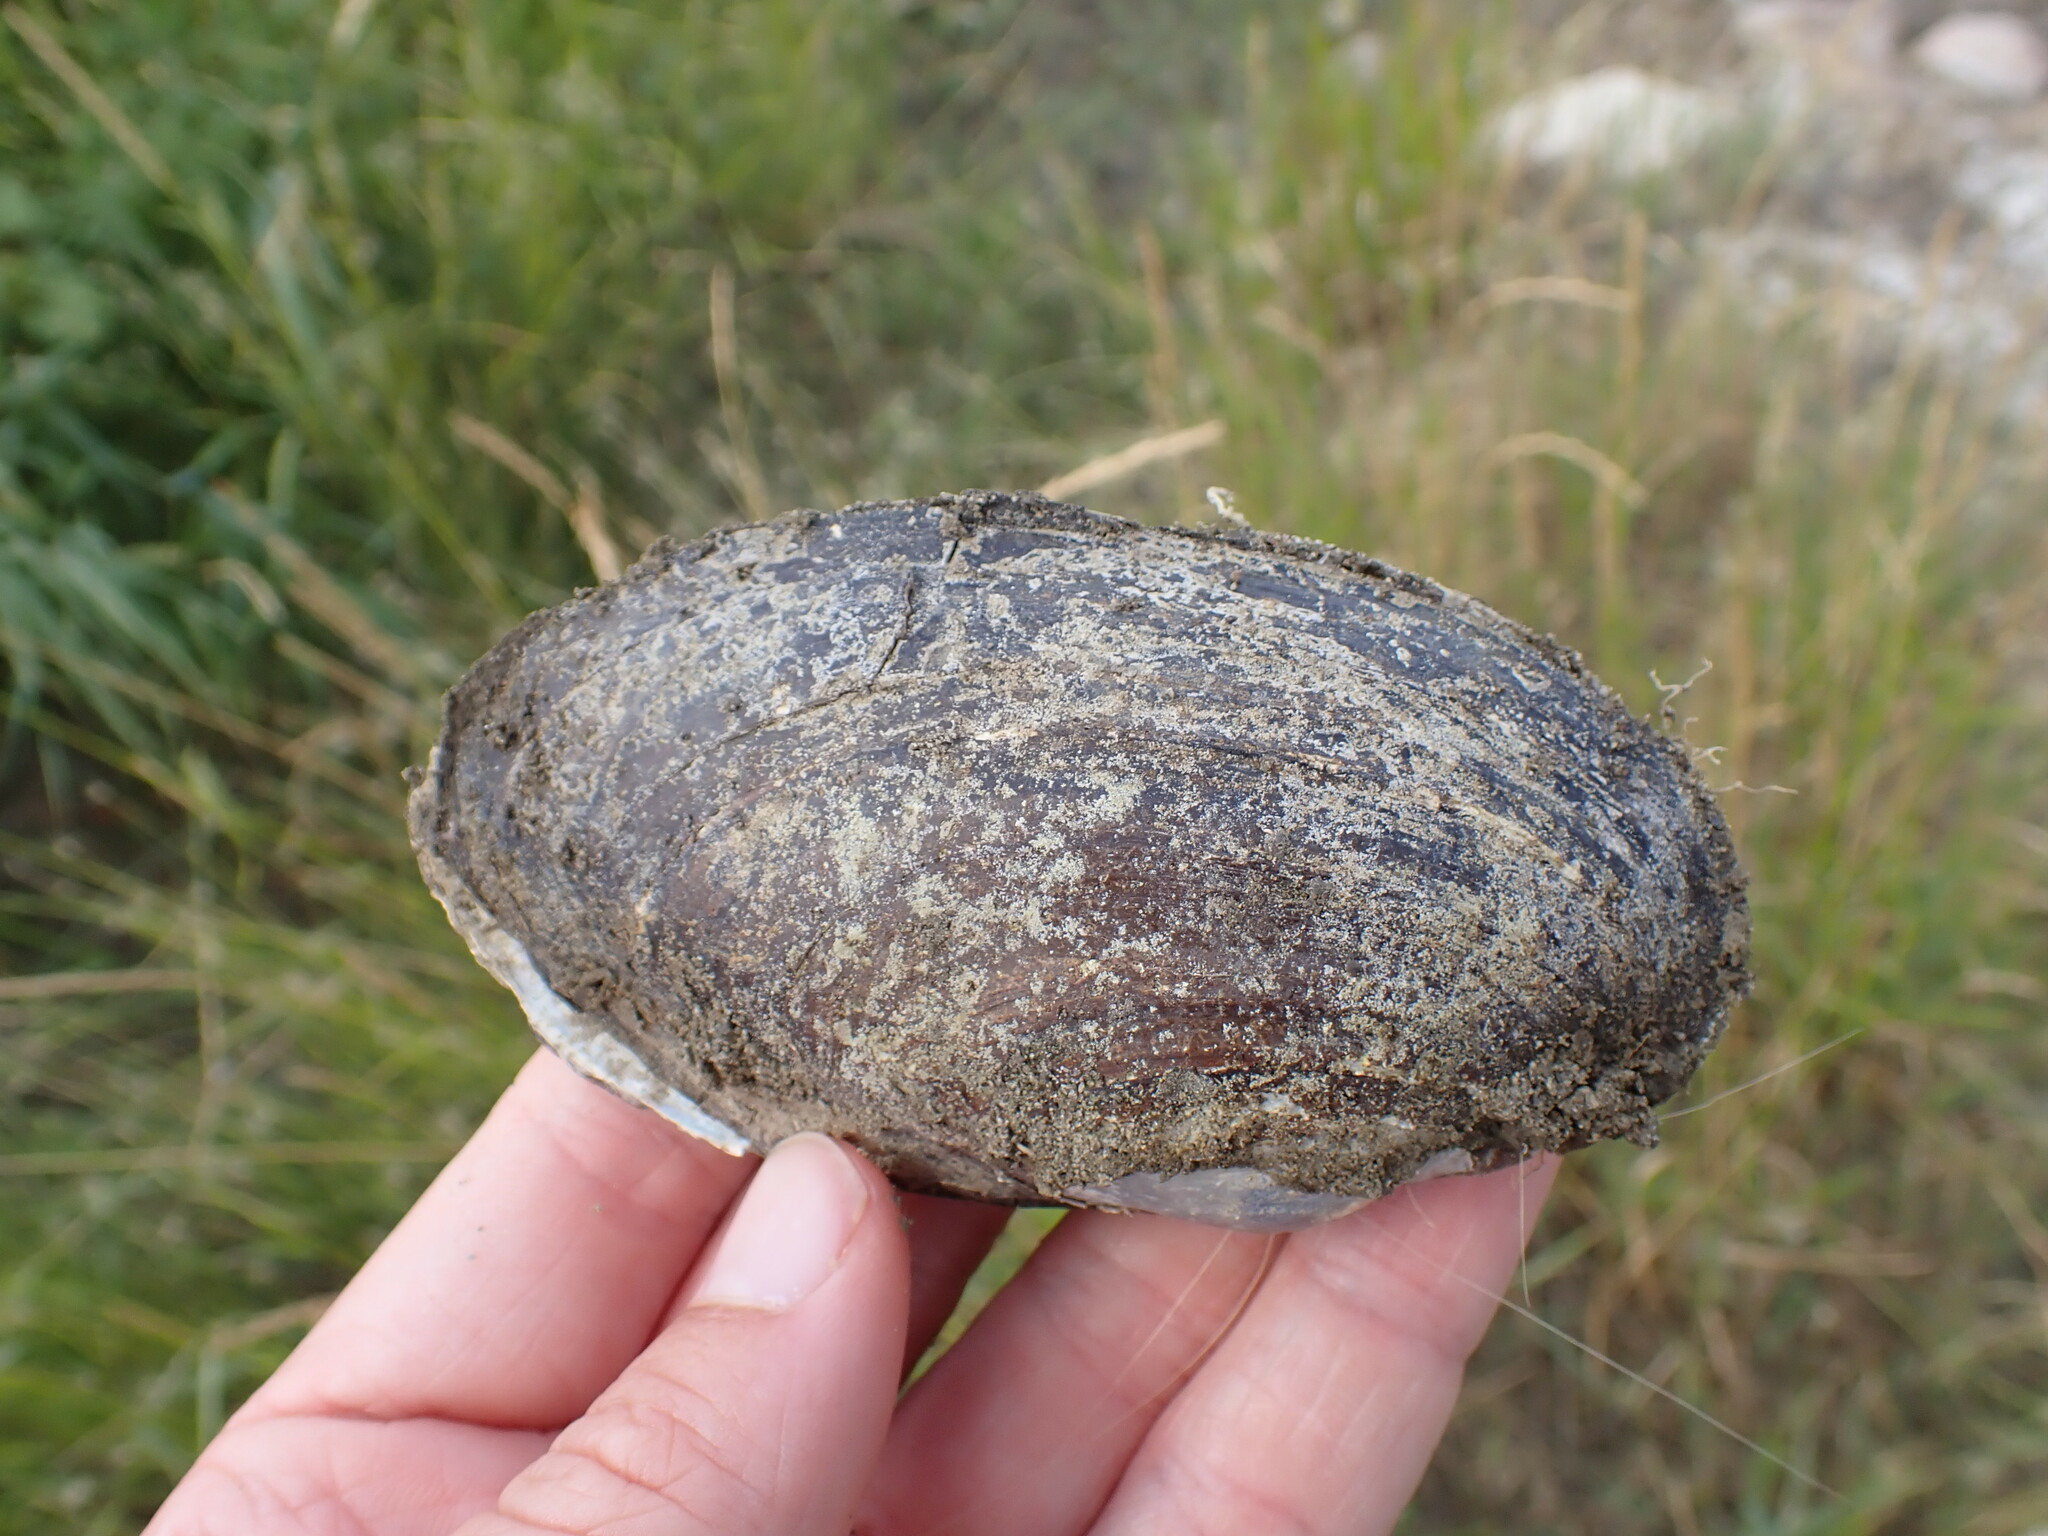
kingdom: Animalia
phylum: Mollusca
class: Bivalvia
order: Unionida
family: Unionidae
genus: Pyganodon
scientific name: Pyganodon grandis
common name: Giant floater
